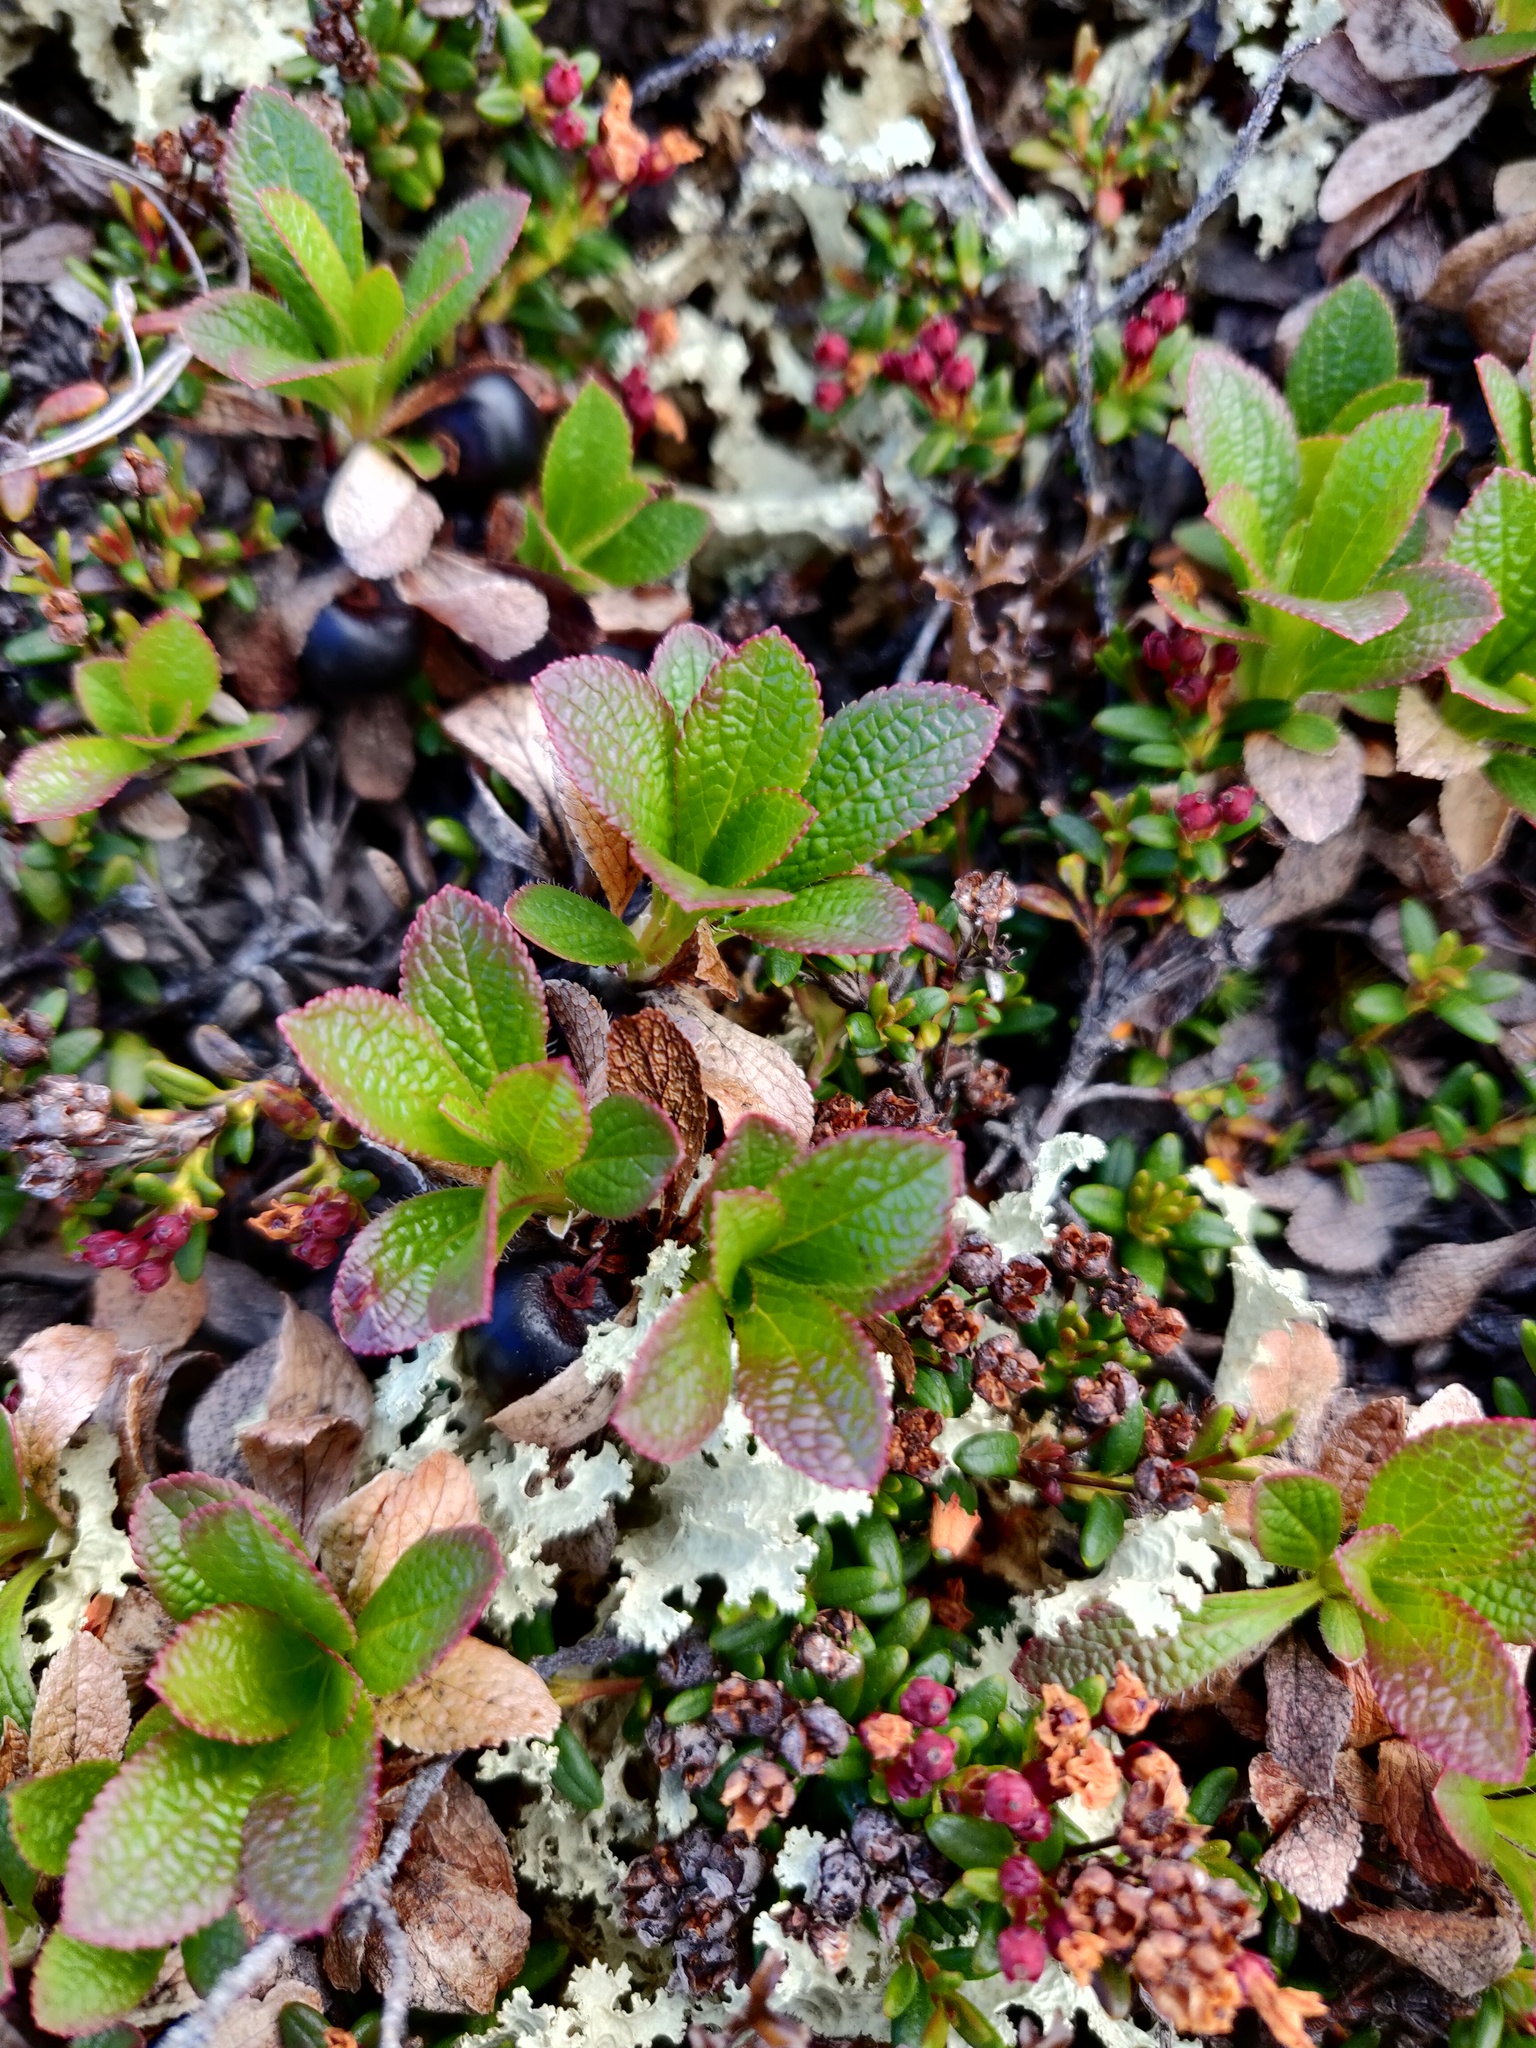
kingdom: Plantae
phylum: Tracheophyta
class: Magnoliopsida
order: Ericales
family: Ericaceae
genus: Arctostaphylos
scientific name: Arctostaphylos alpinus
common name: Alpine bearberry
